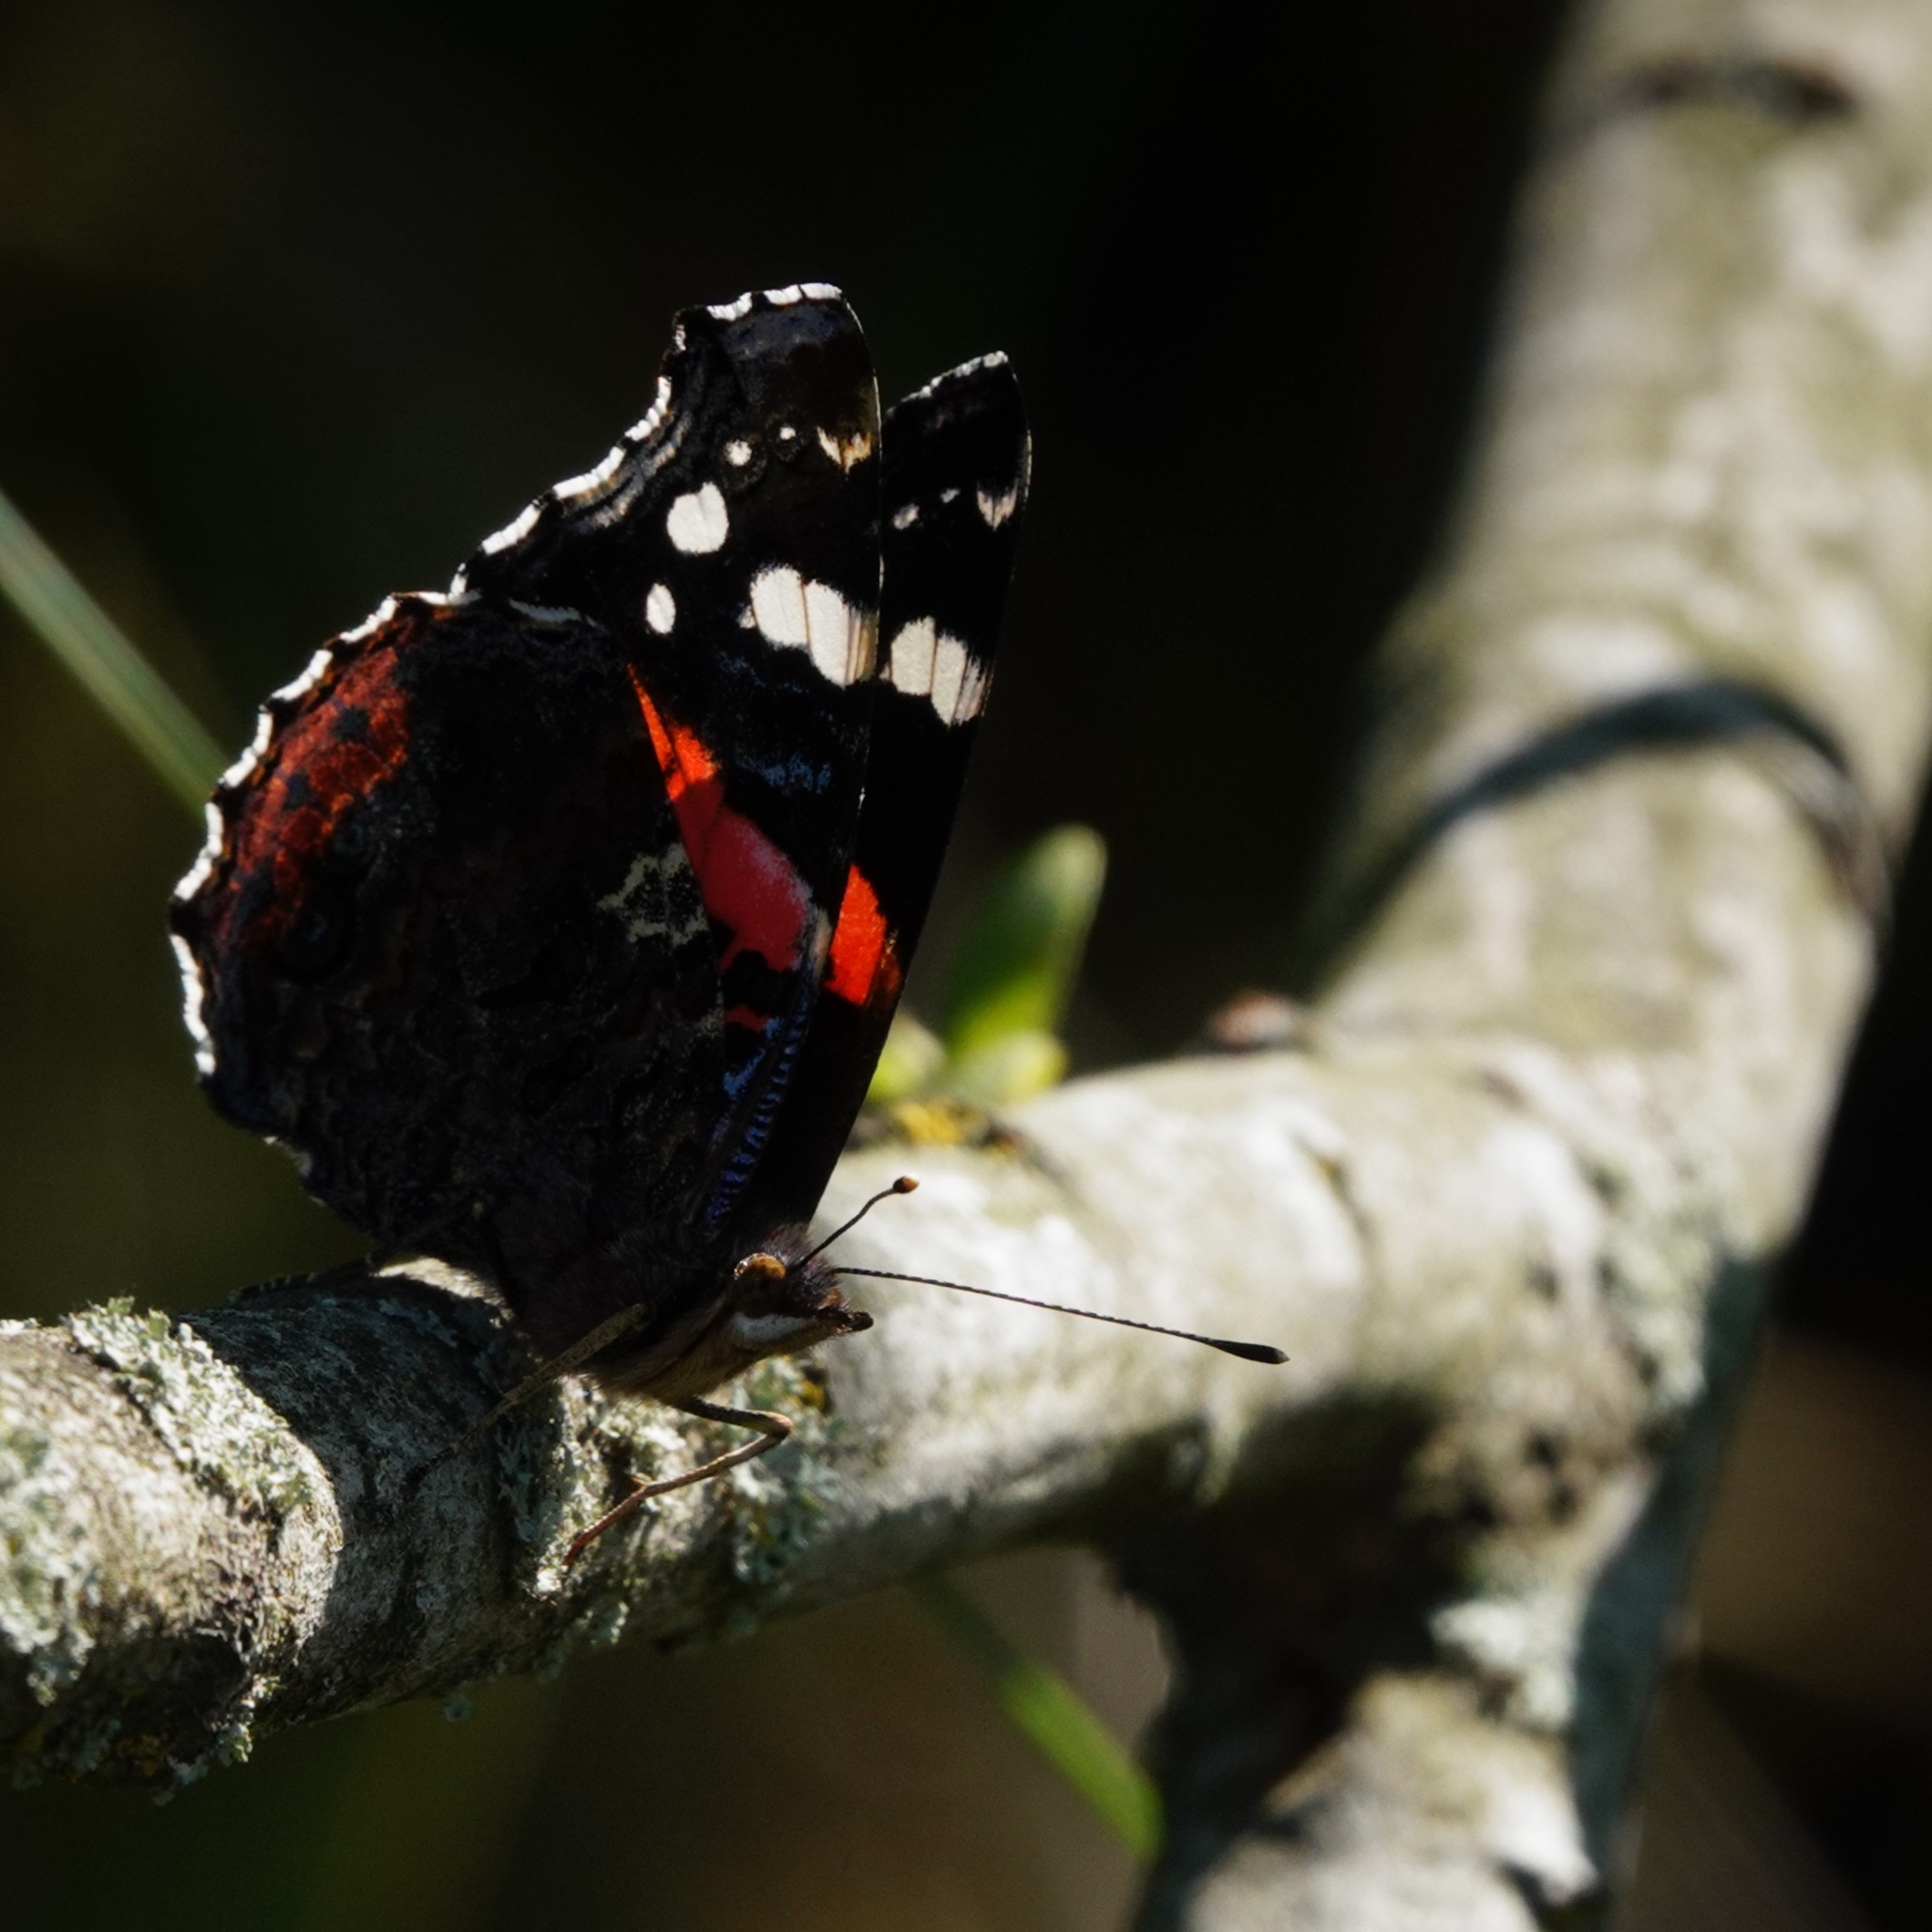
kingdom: Animalia
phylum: Arthropoda
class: Insecta
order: Lepidoptera
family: Nymphalidae
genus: Vanessa
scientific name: Vanessa atalanta
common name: Red admiral
